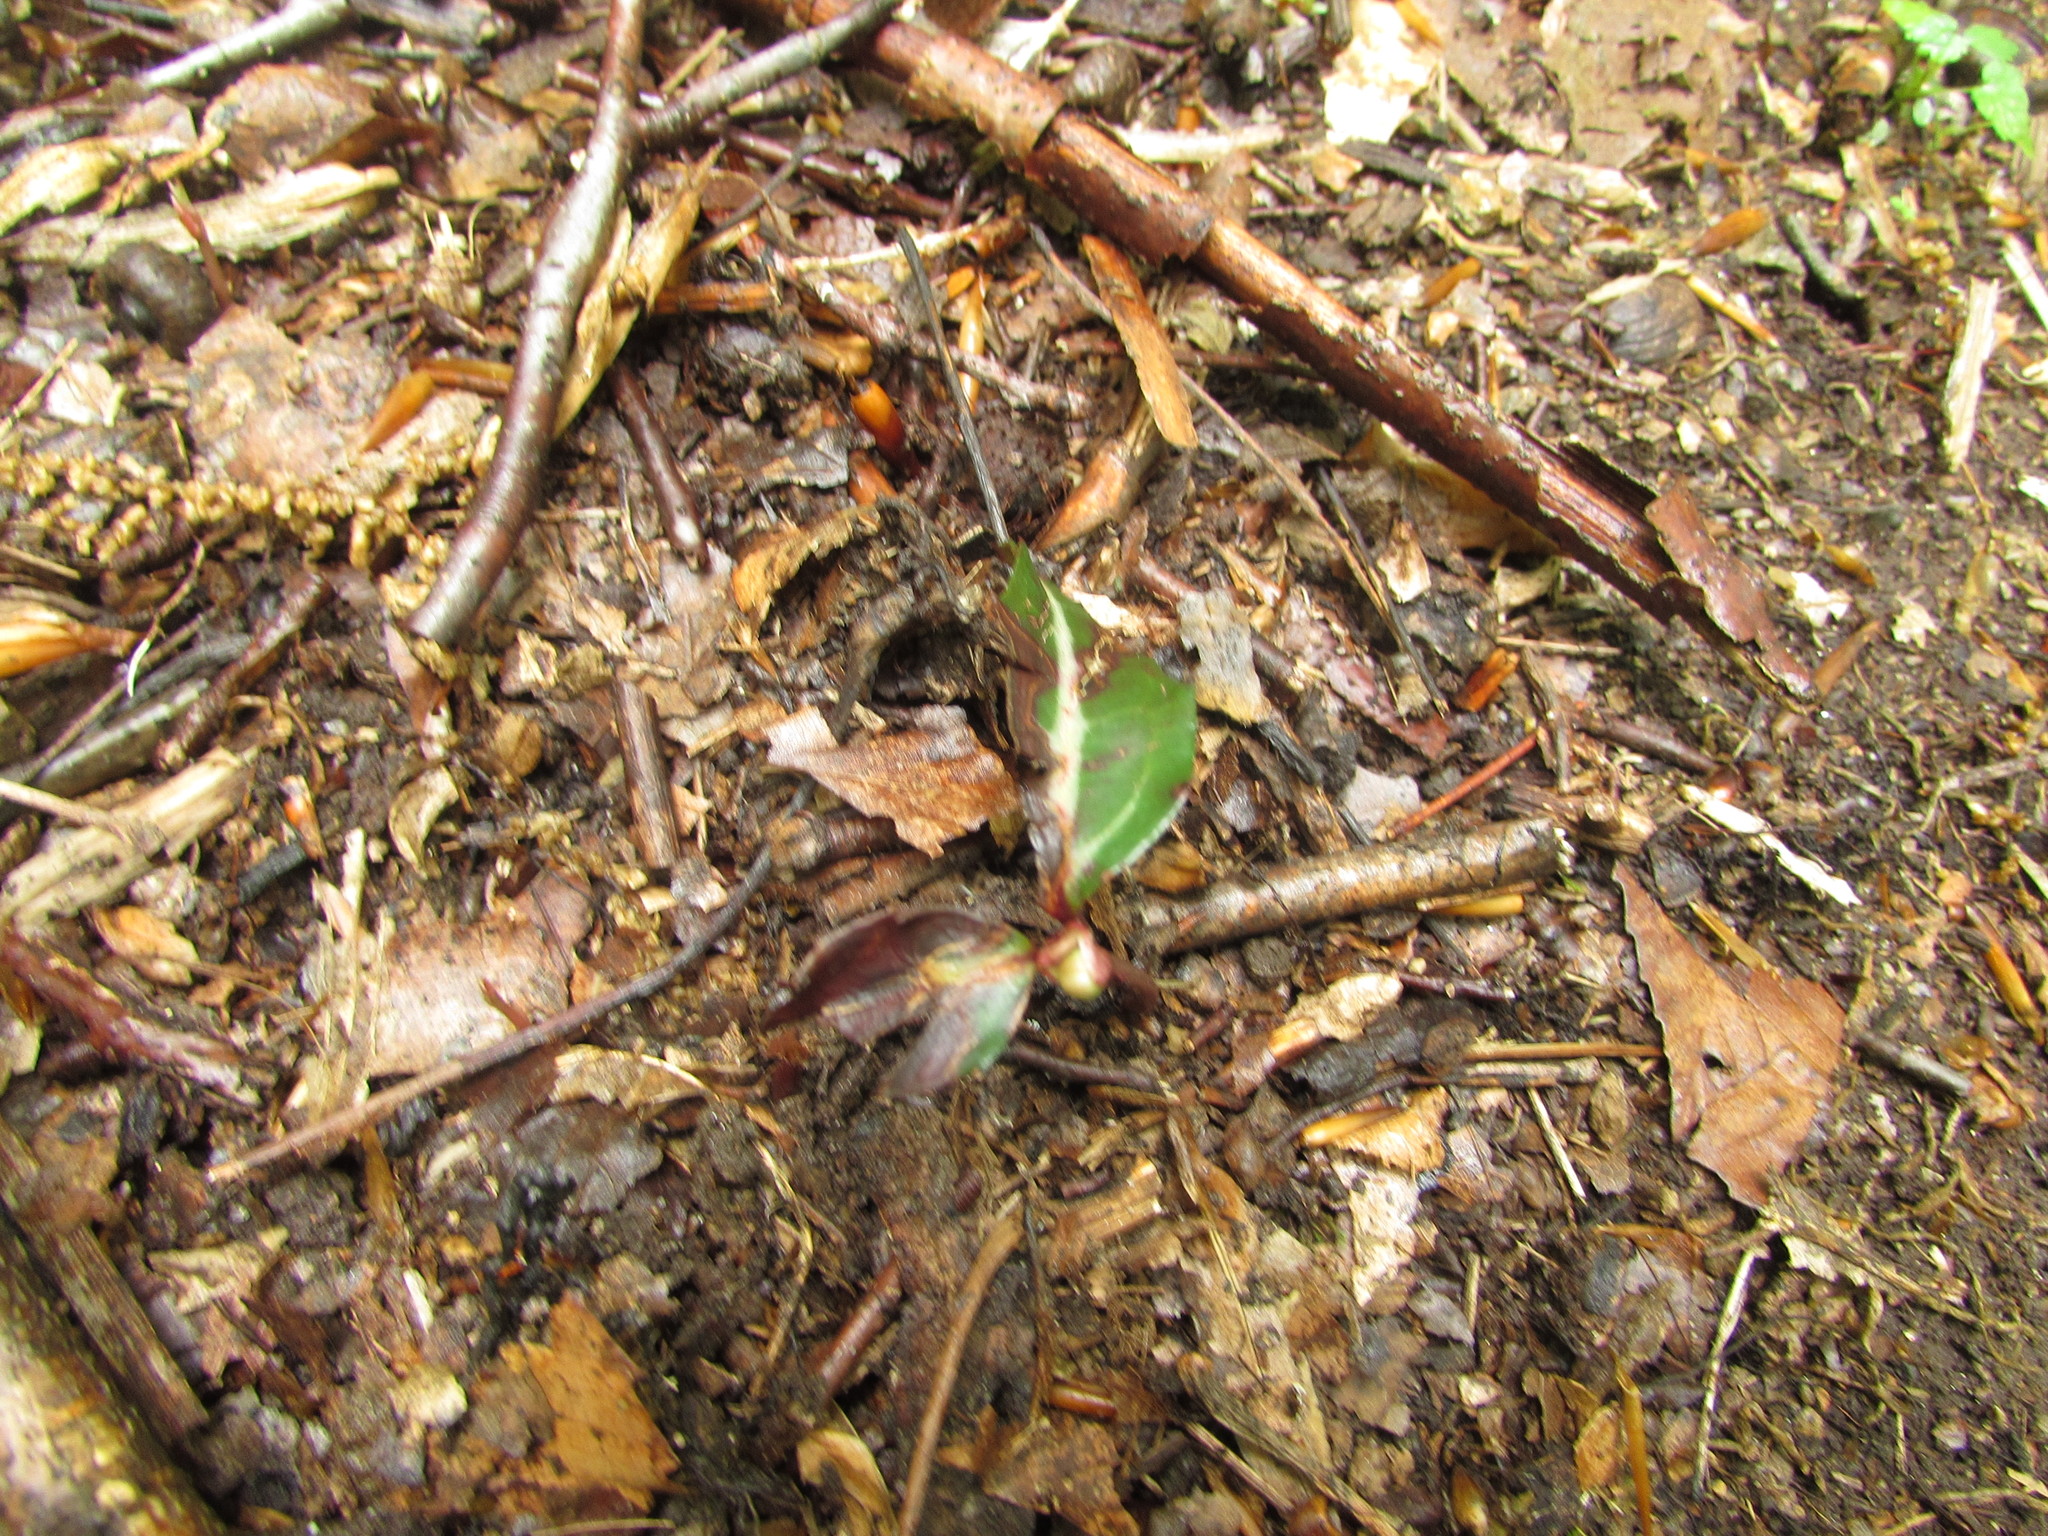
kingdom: Plantae
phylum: Tracheophyta
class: Magnoliopsida
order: Ericales
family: Ericaceae
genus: Chimaphila
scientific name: Chimaphila maculata
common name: Spotted pipsissewa
